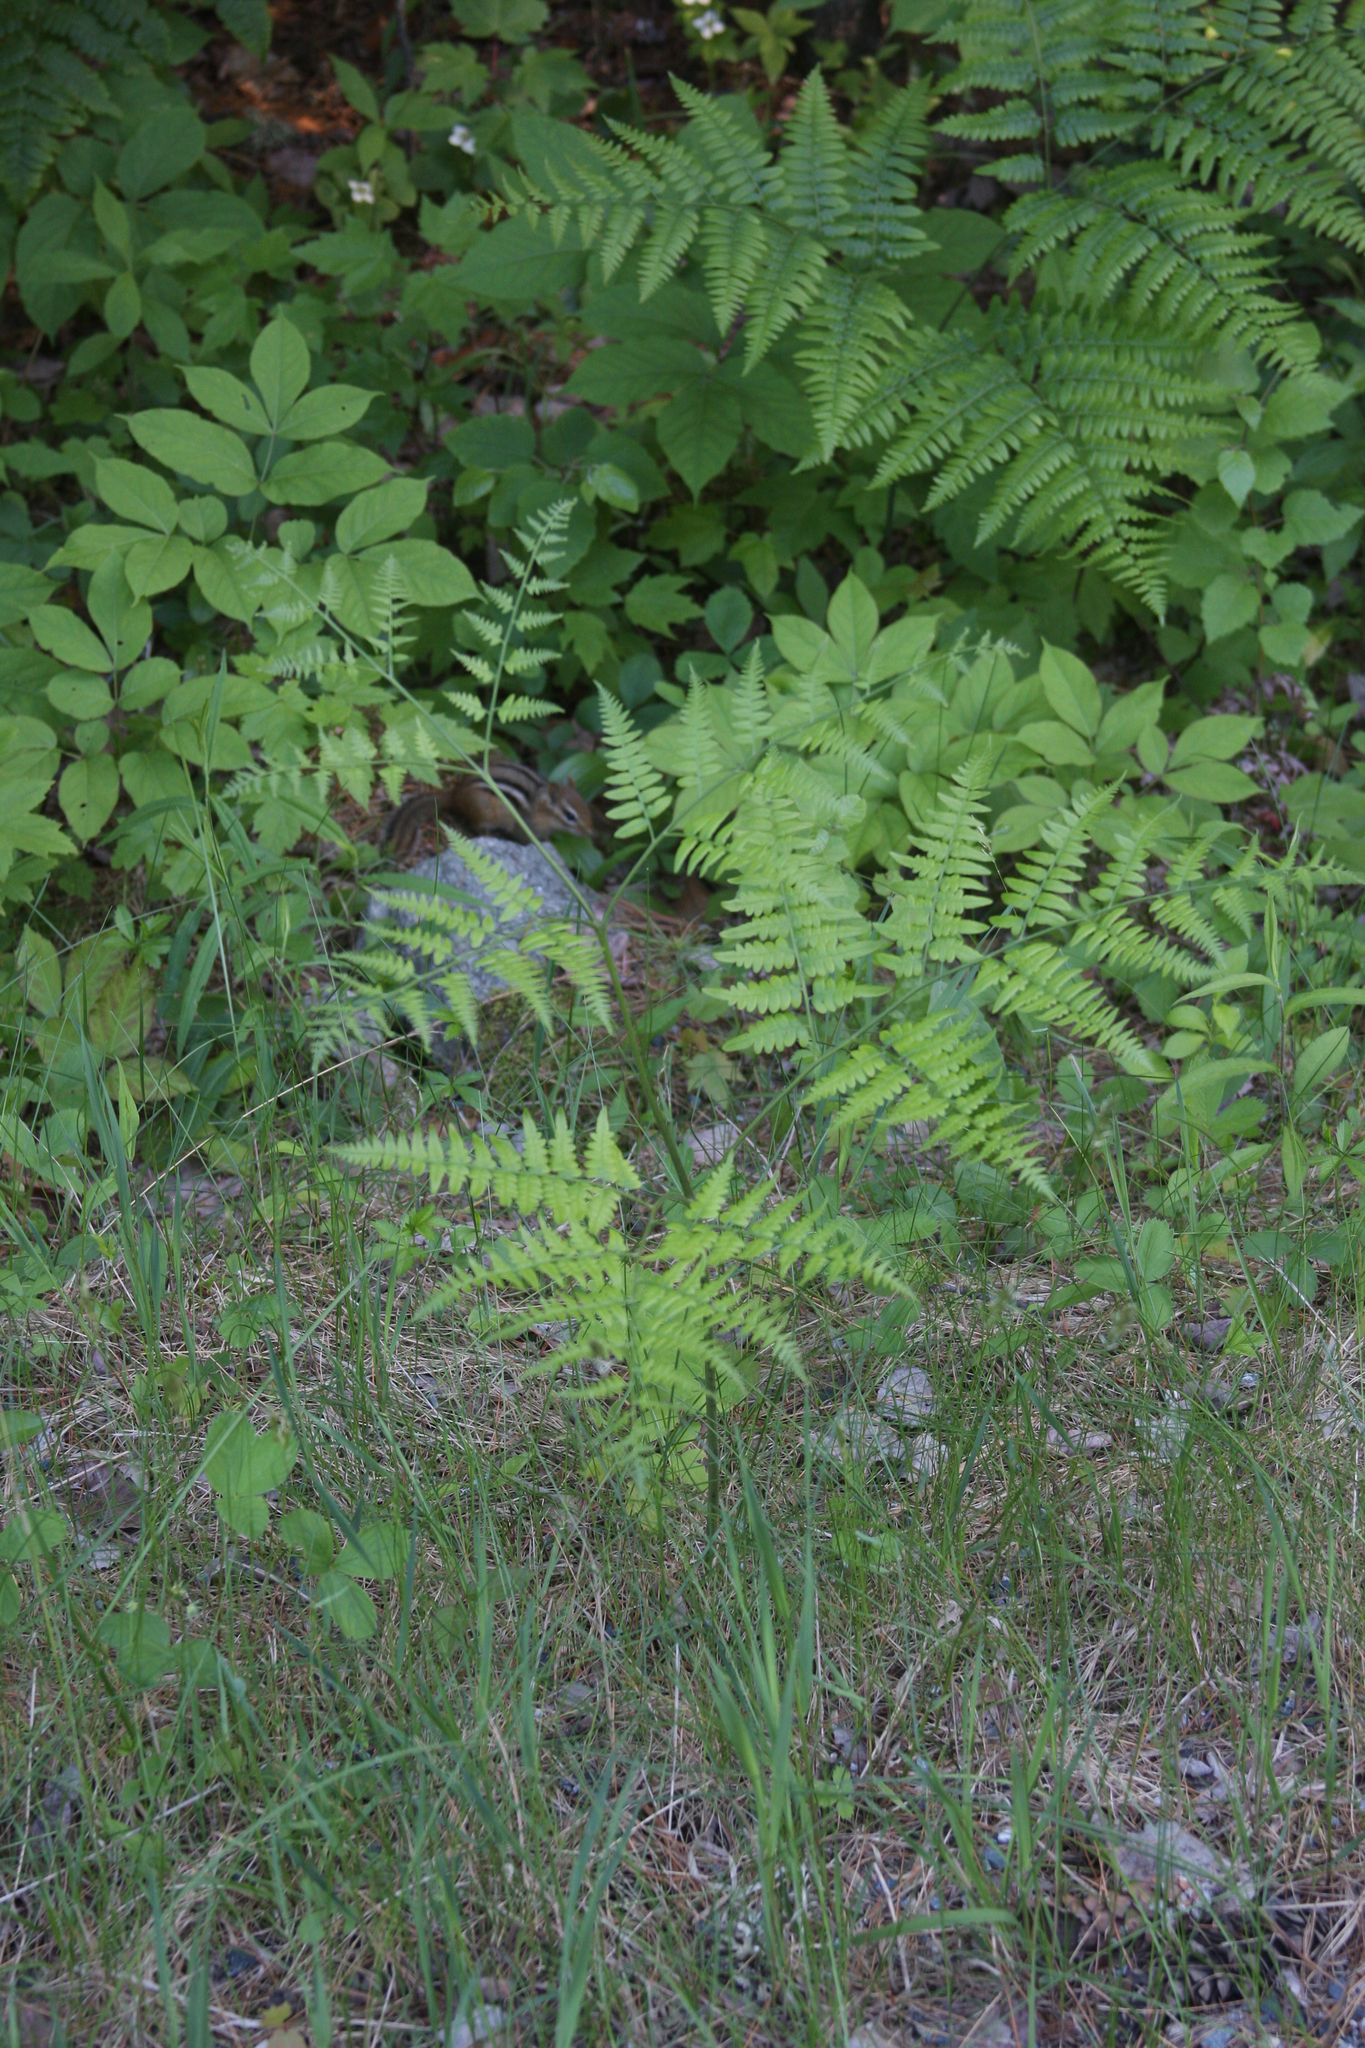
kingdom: Plantae
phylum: Tracheophyta
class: Polypodiopsida
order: Polypodiales
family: Dennstaedtiaceae
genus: Pteridium
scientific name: Pteridium aquilinum
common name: Bracken
